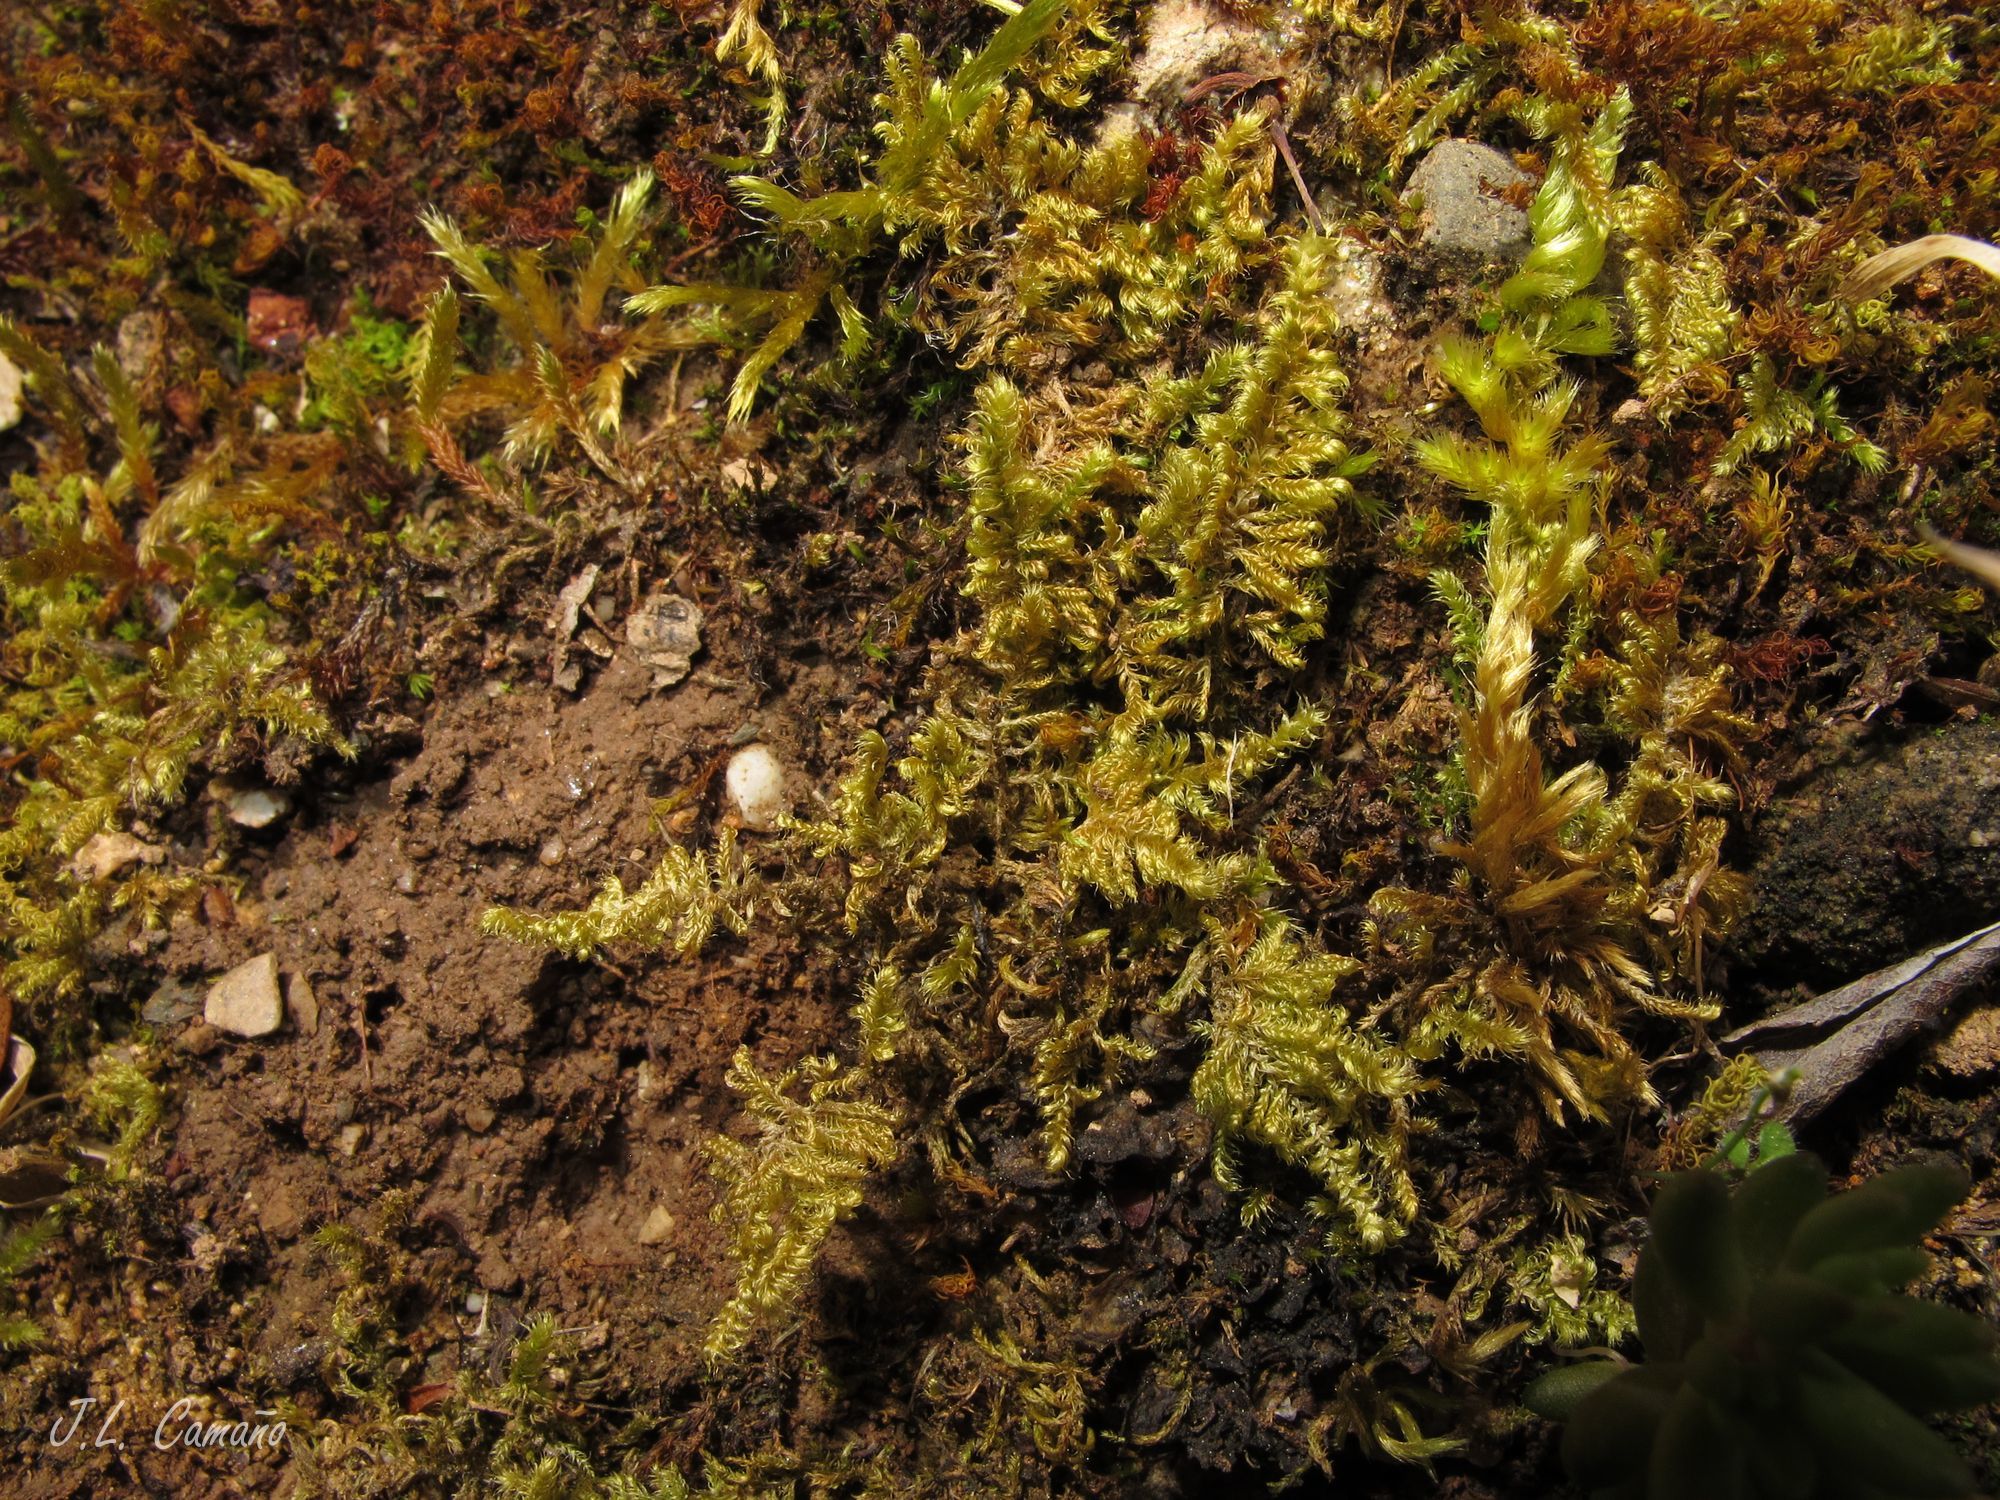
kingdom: Plantae
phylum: Bryophyta
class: Bryopsida
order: Hypnales
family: Myuriaceae
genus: Ctenidium
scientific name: Ctenidium molluscum
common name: Chalk comb-moss
